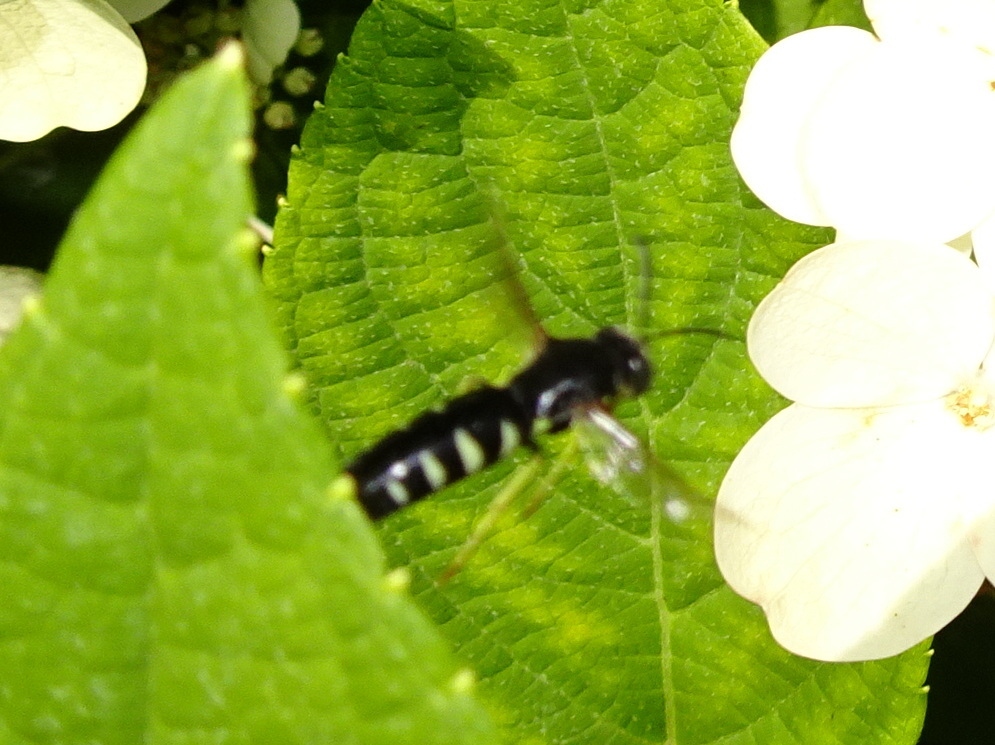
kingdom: Animalia
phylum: Arthropoda
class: Insecta
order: Hymenoptera
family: Crabronidae
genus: Bicyrtes
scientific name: Bicyrtes quadrifasciatus
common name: Four-banded stink bug hunter wasp
